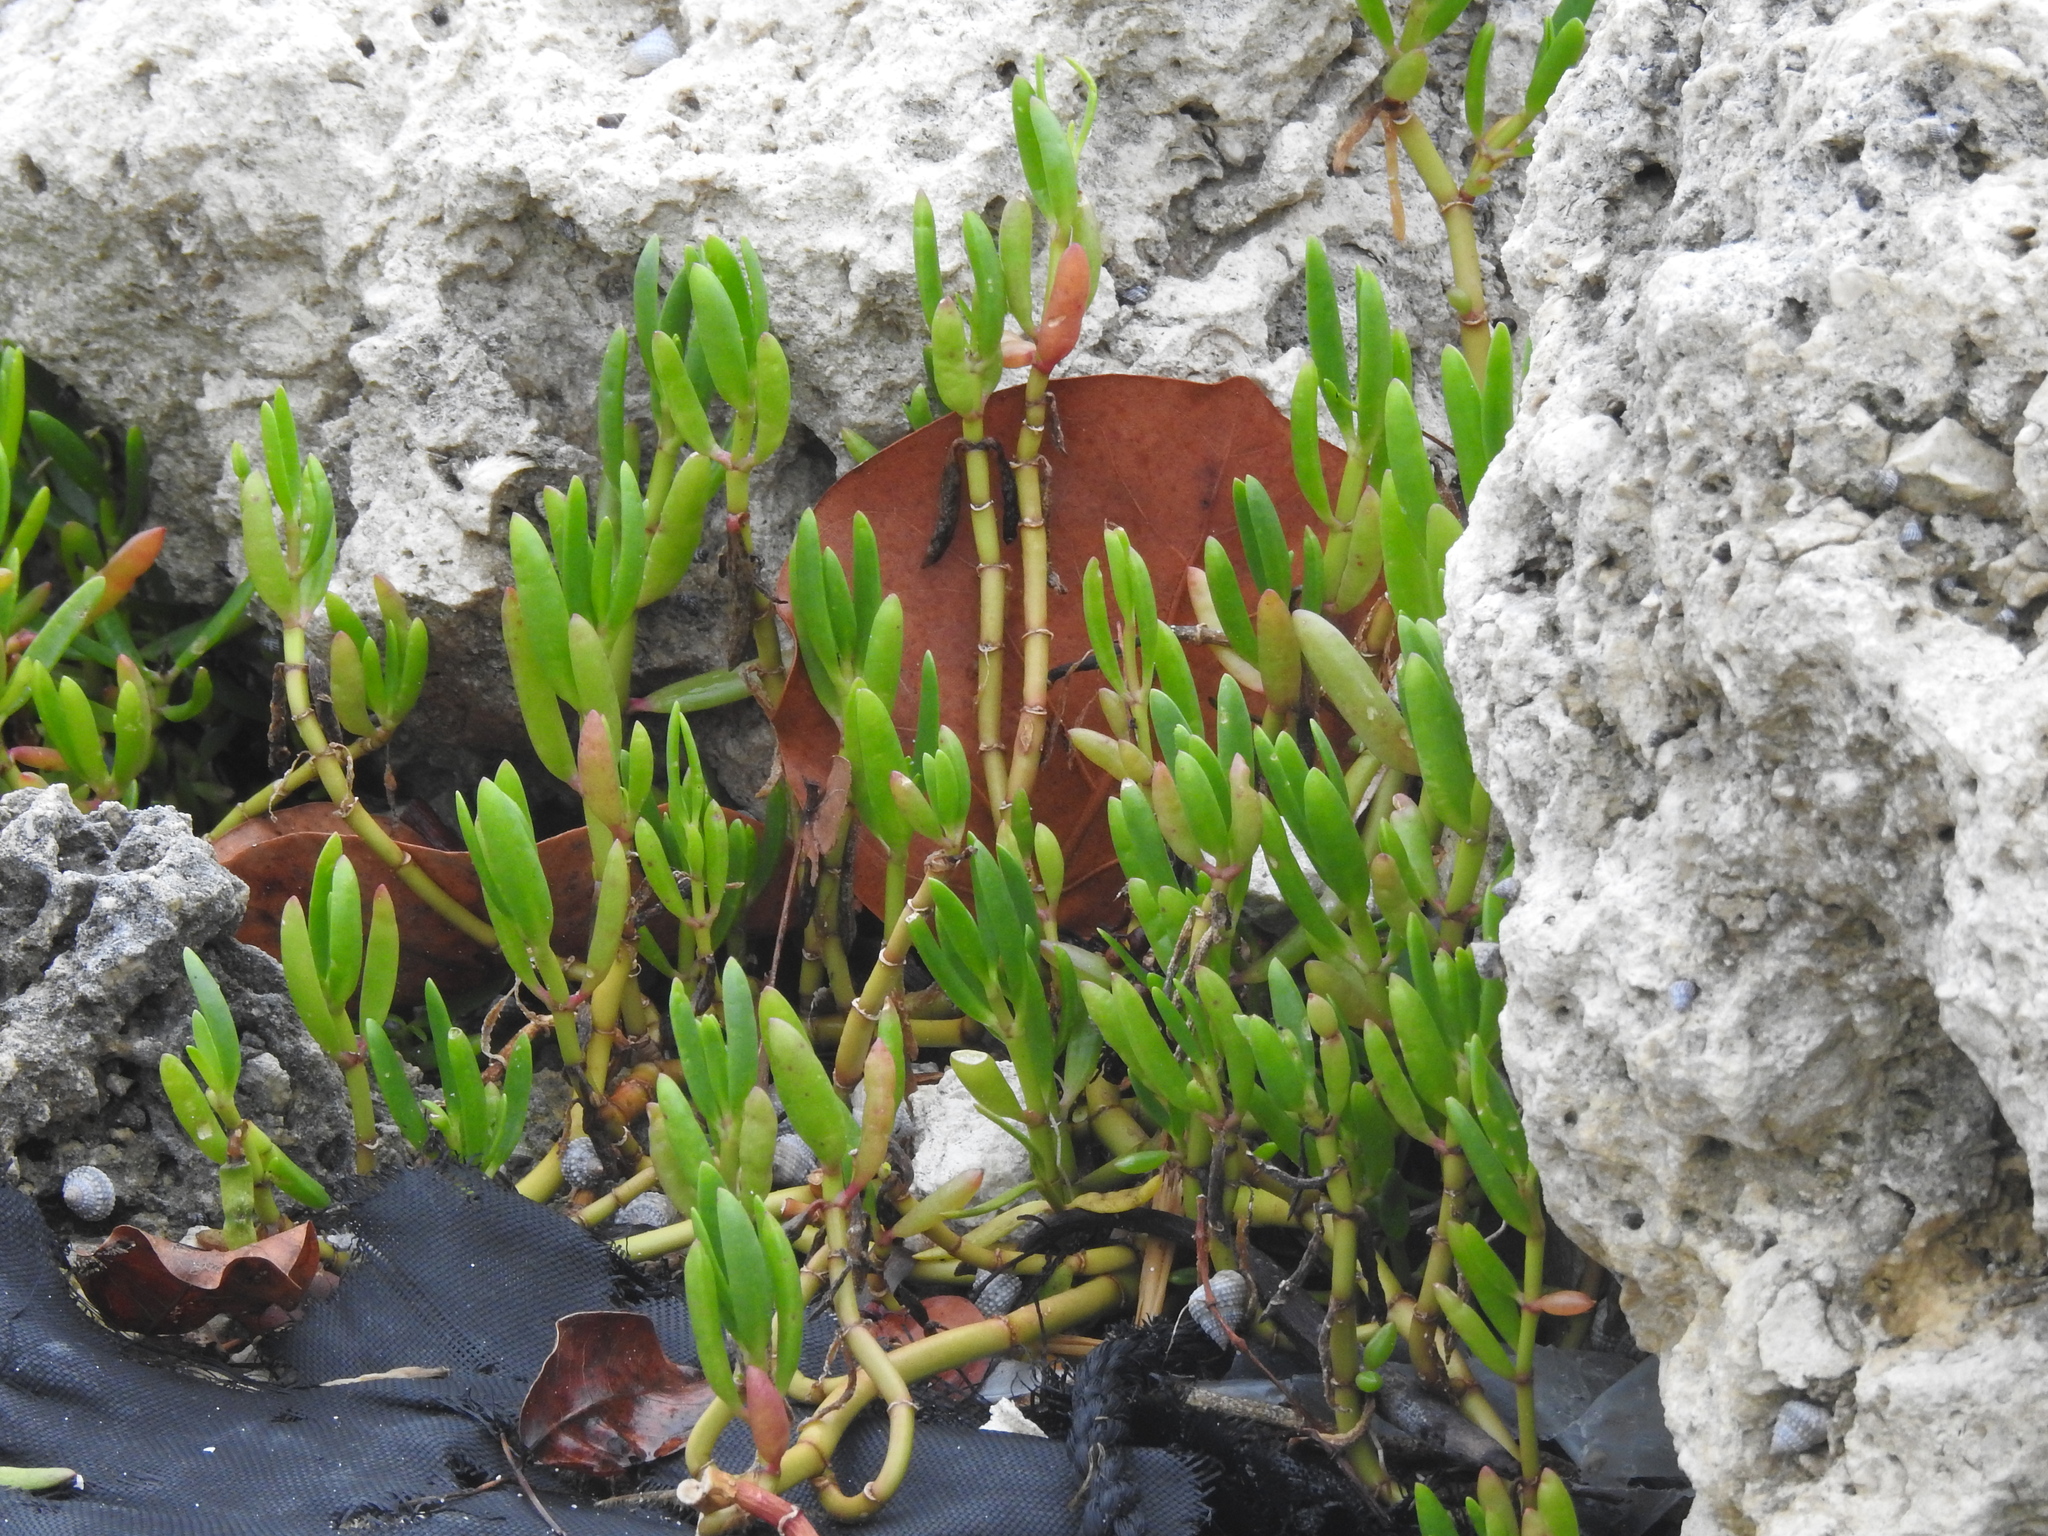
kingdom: Plantae
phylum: Tracheophyta
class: Magnoliopsida
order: Caryophyllales
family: Aizoaceae
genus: Sesuvium
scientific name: Sesuvium portulacastrum
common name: Sea-purslane
